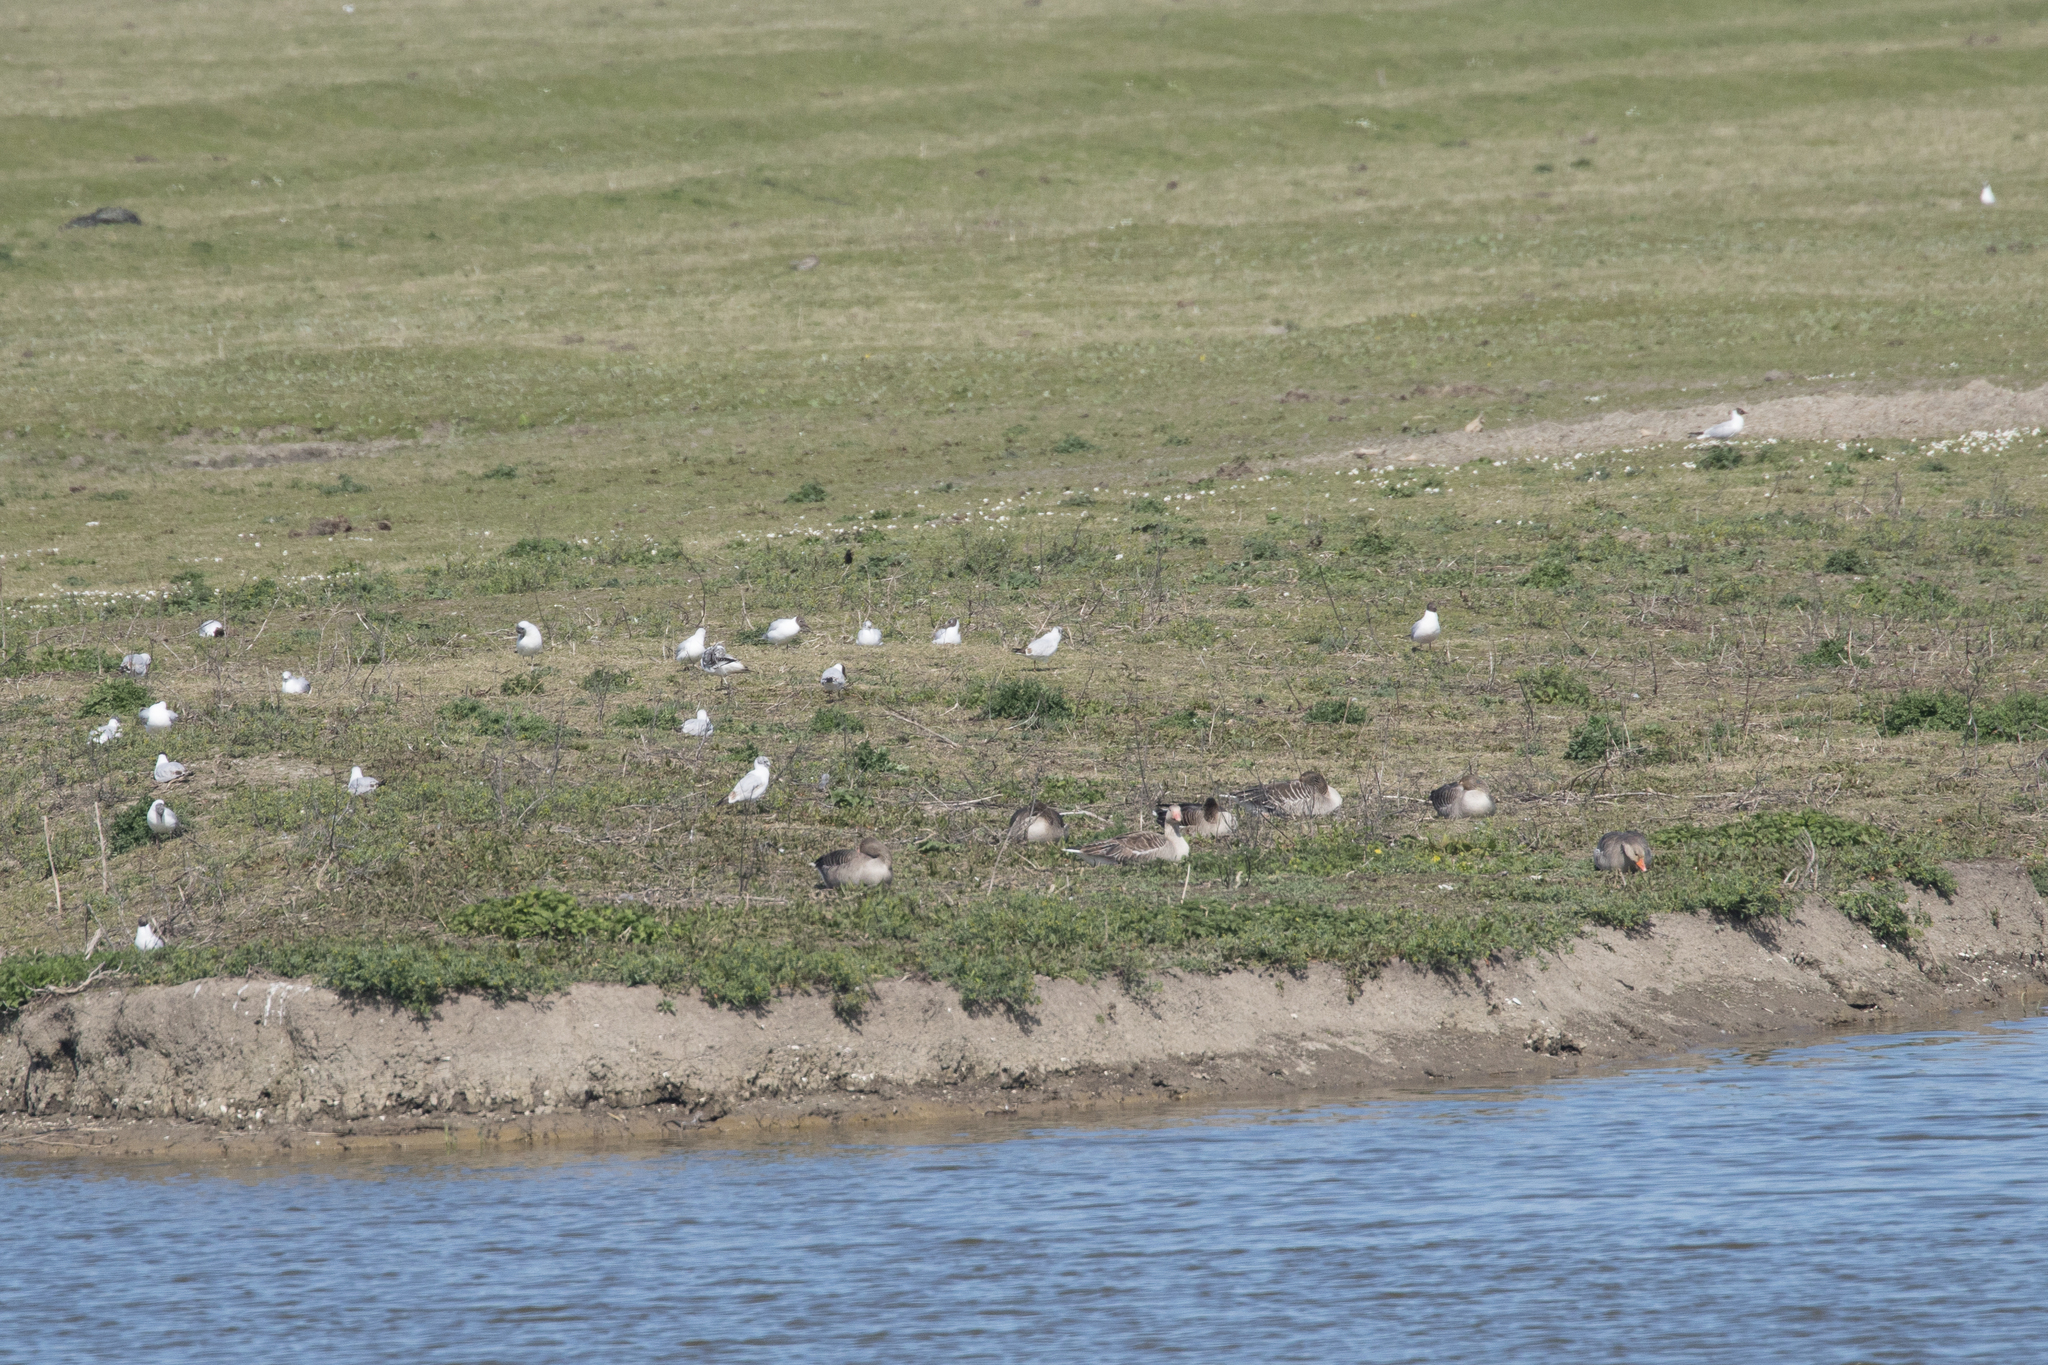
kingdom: Animalia
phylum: Chordata
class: Aves
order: Charadriiformes
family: Laridae
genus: Chroicocephalus
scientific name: Chroicocephalus ridibundus
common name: Black-headed gull
